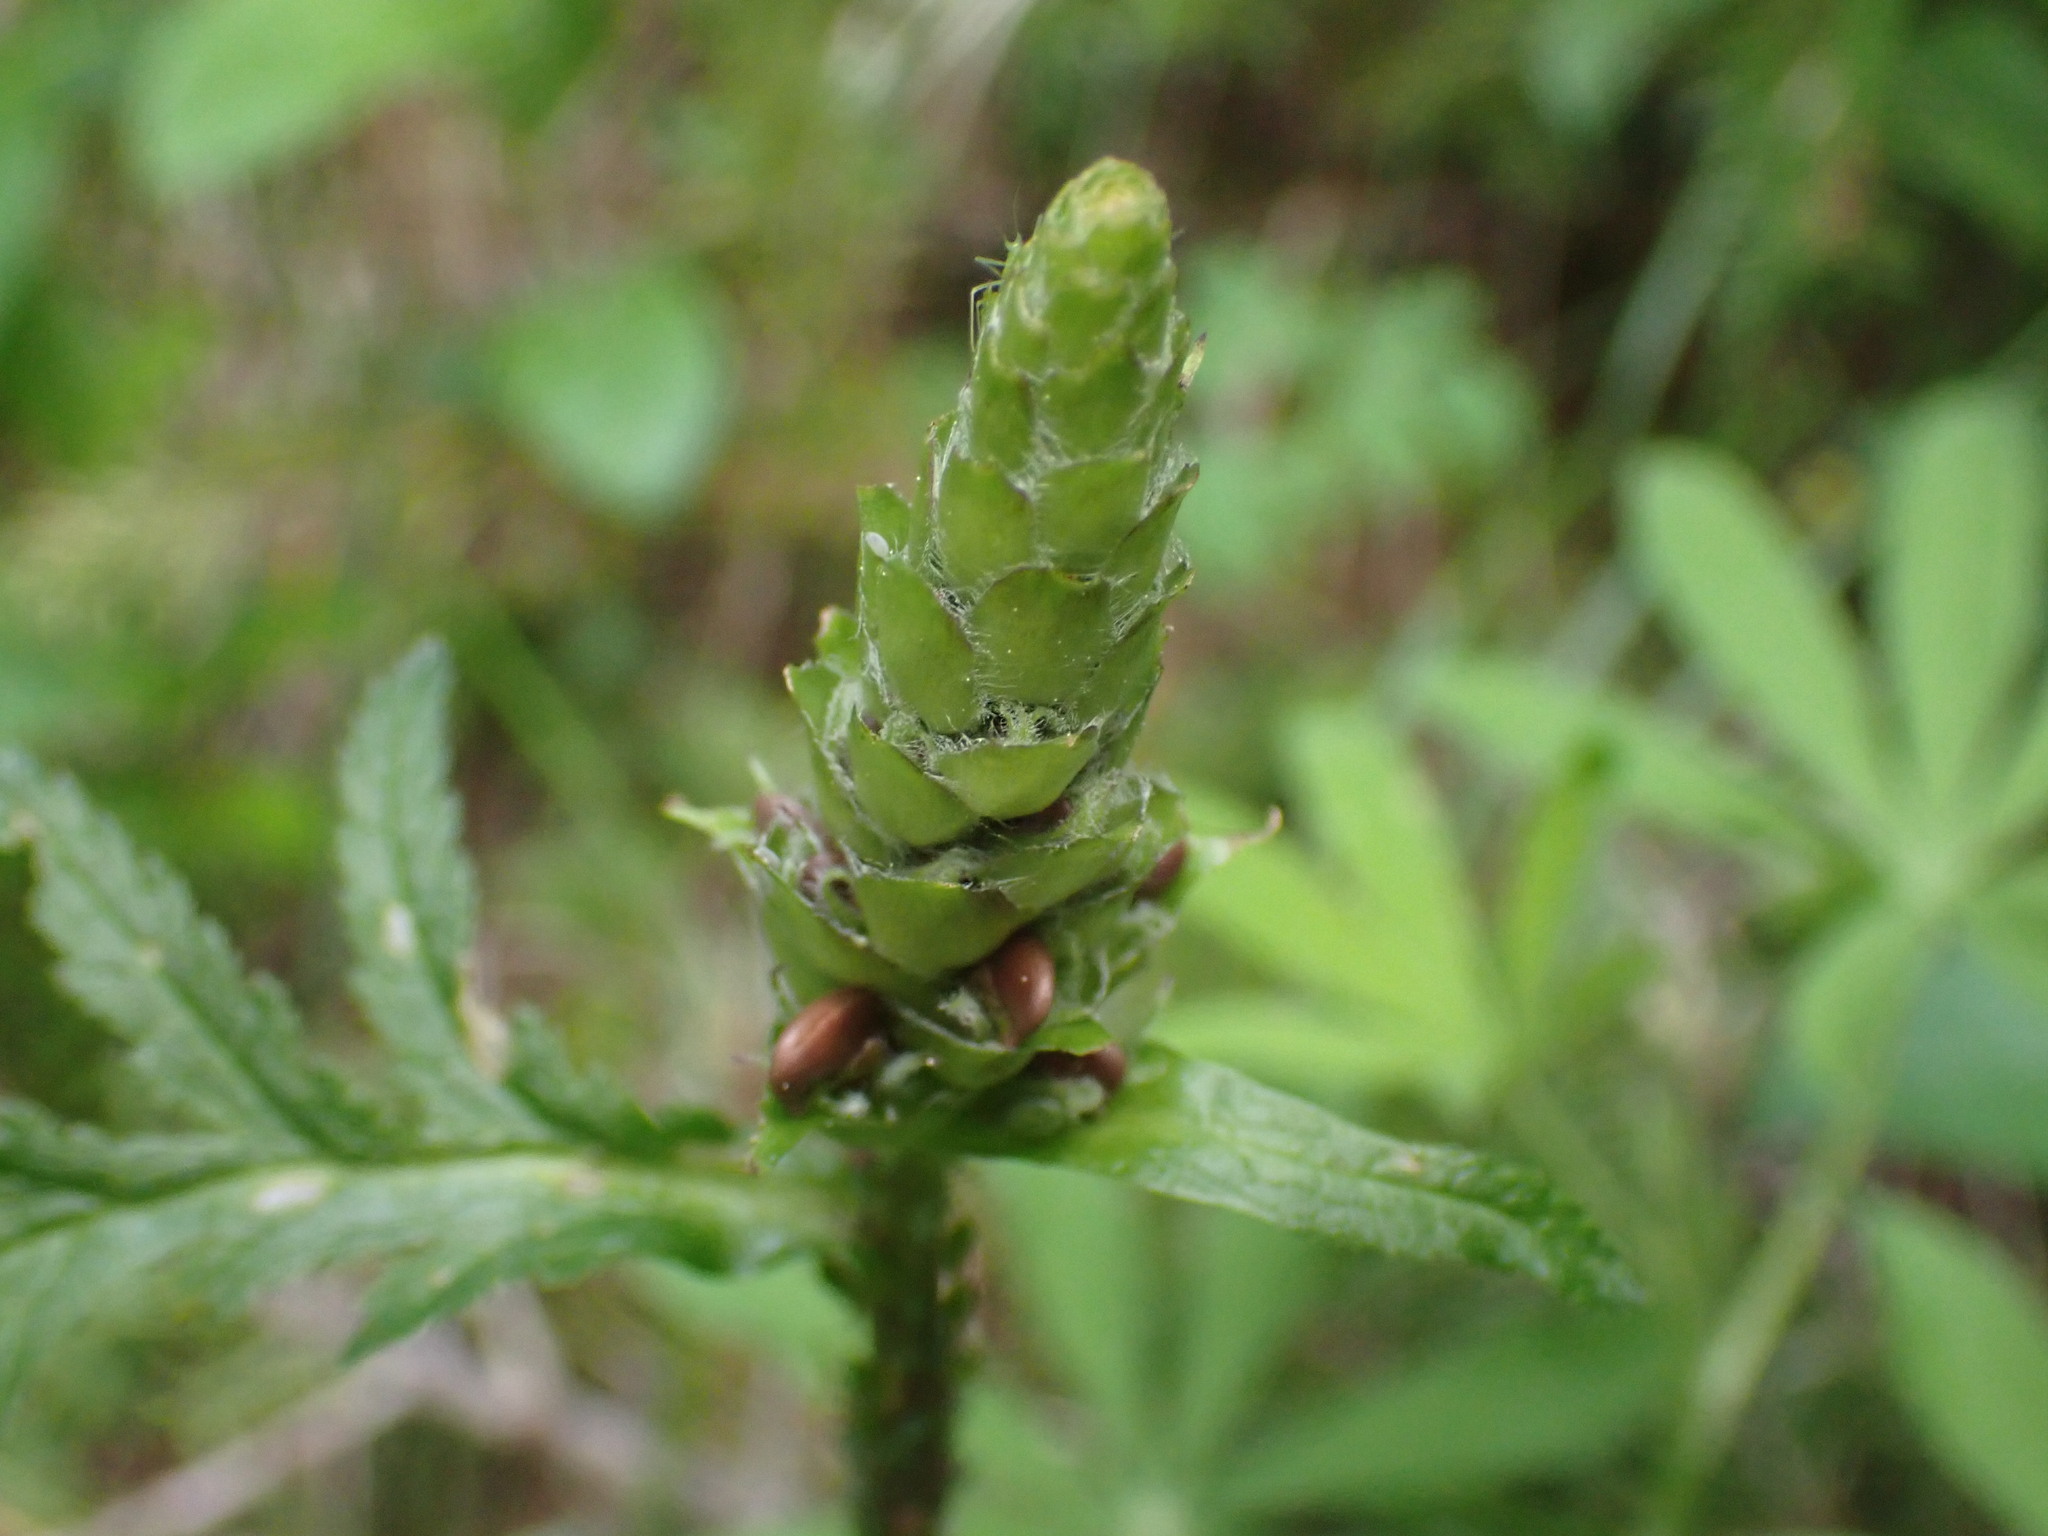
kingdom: Plantae
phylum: Tracheophyta
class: Magnoliopsida
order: Lamiales
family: Orobanchaceae
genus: Pedicularis
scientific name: Pedicularis bracteosa
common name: Bracted lousewort
